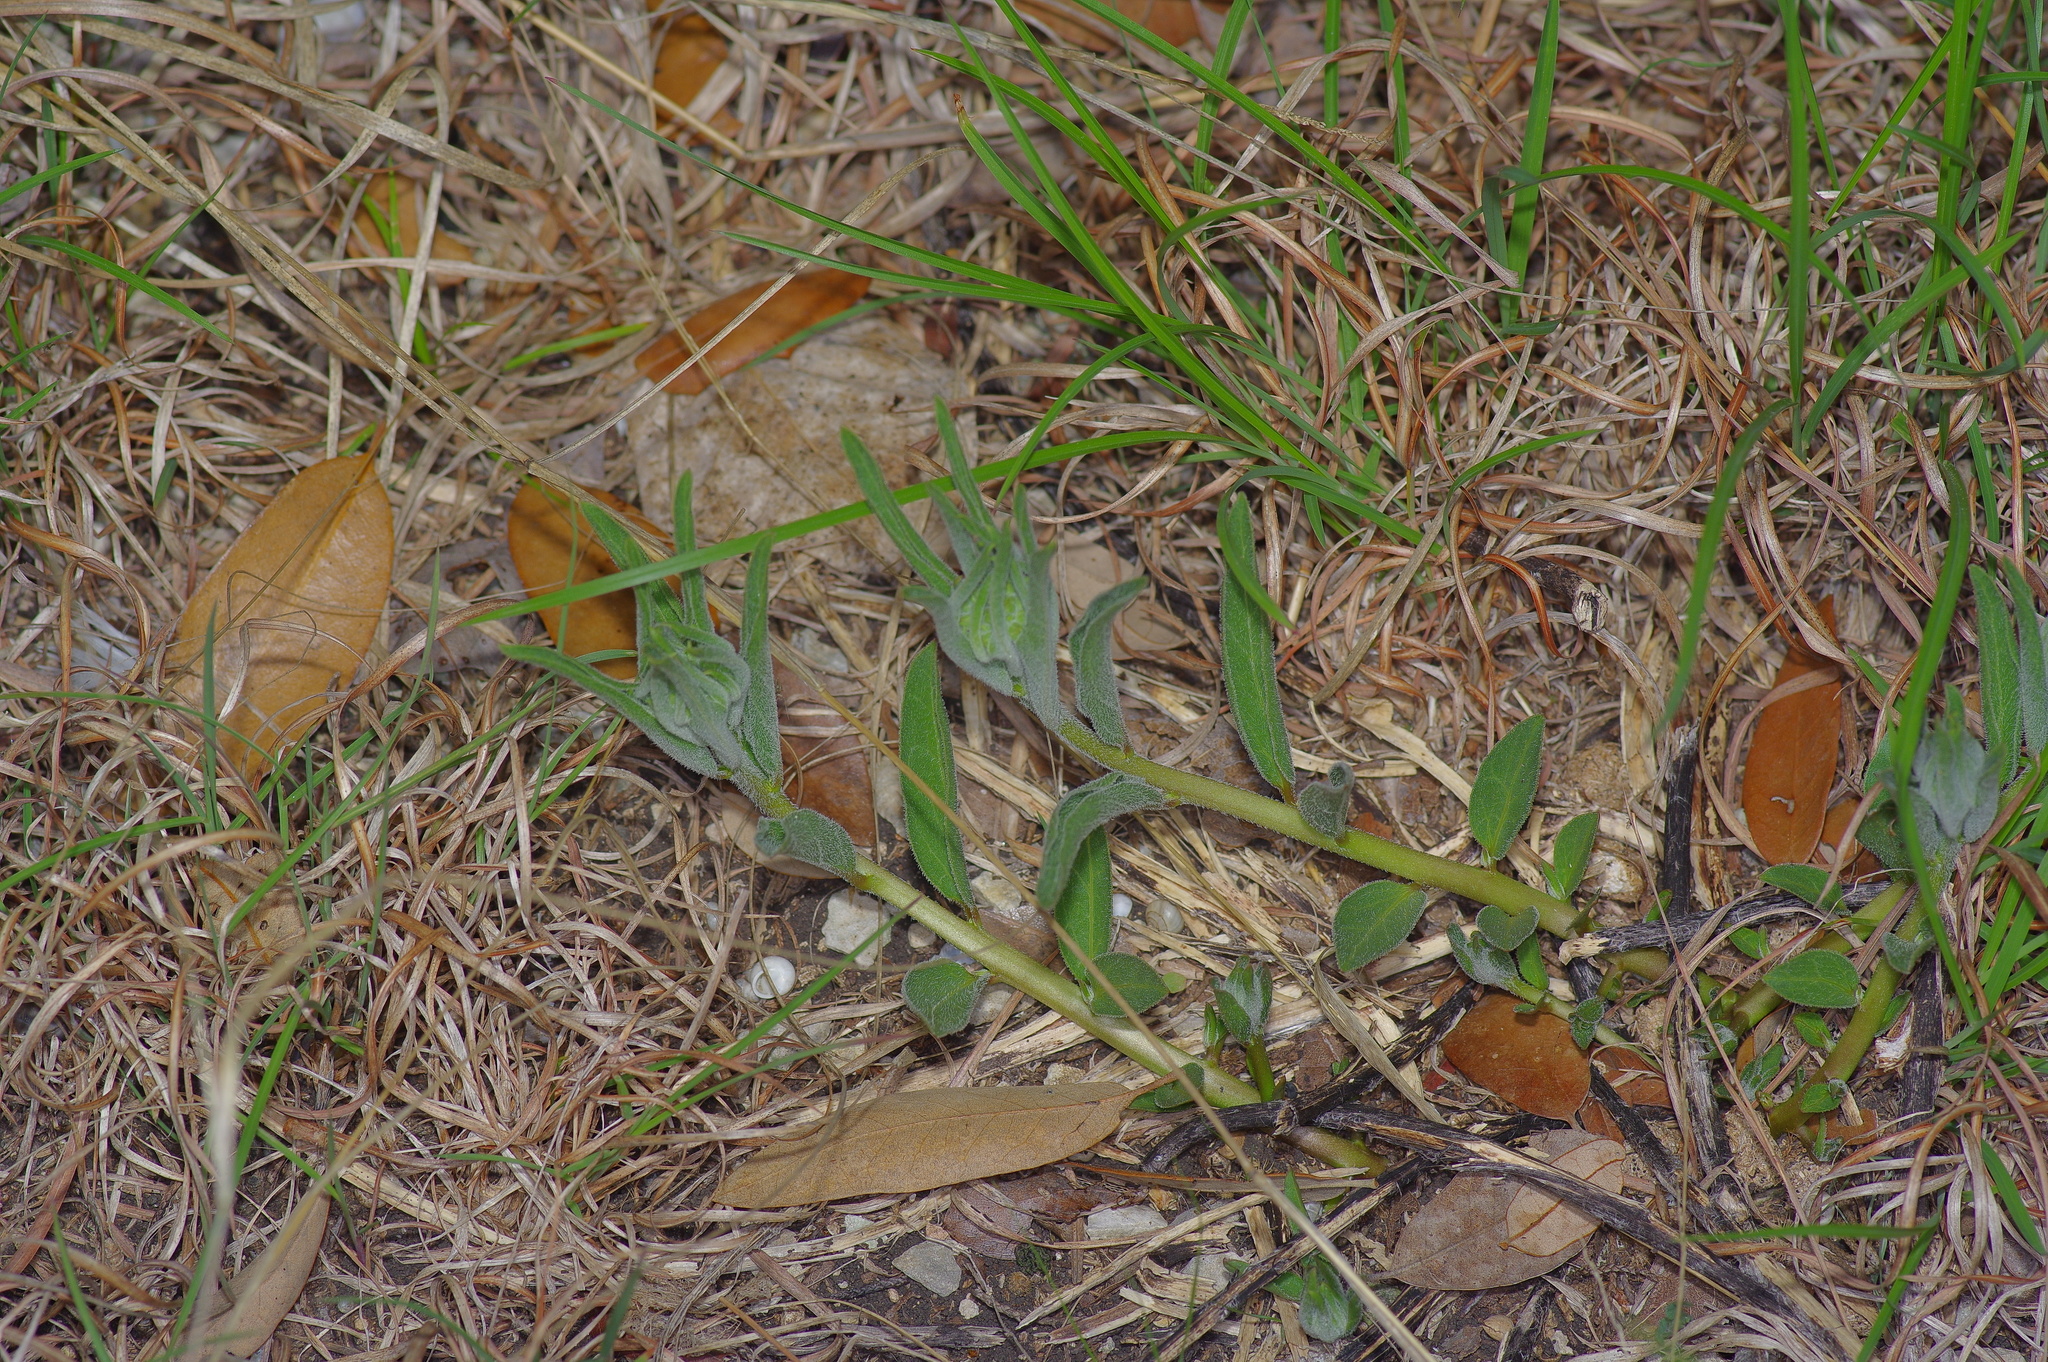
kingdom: Plantae
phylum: Tracheophyta
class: Magnoliopsida
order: Gentianales
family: Apocynaceae
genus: Asclepias
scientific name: Asclepias asperula
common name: Antelope horns
